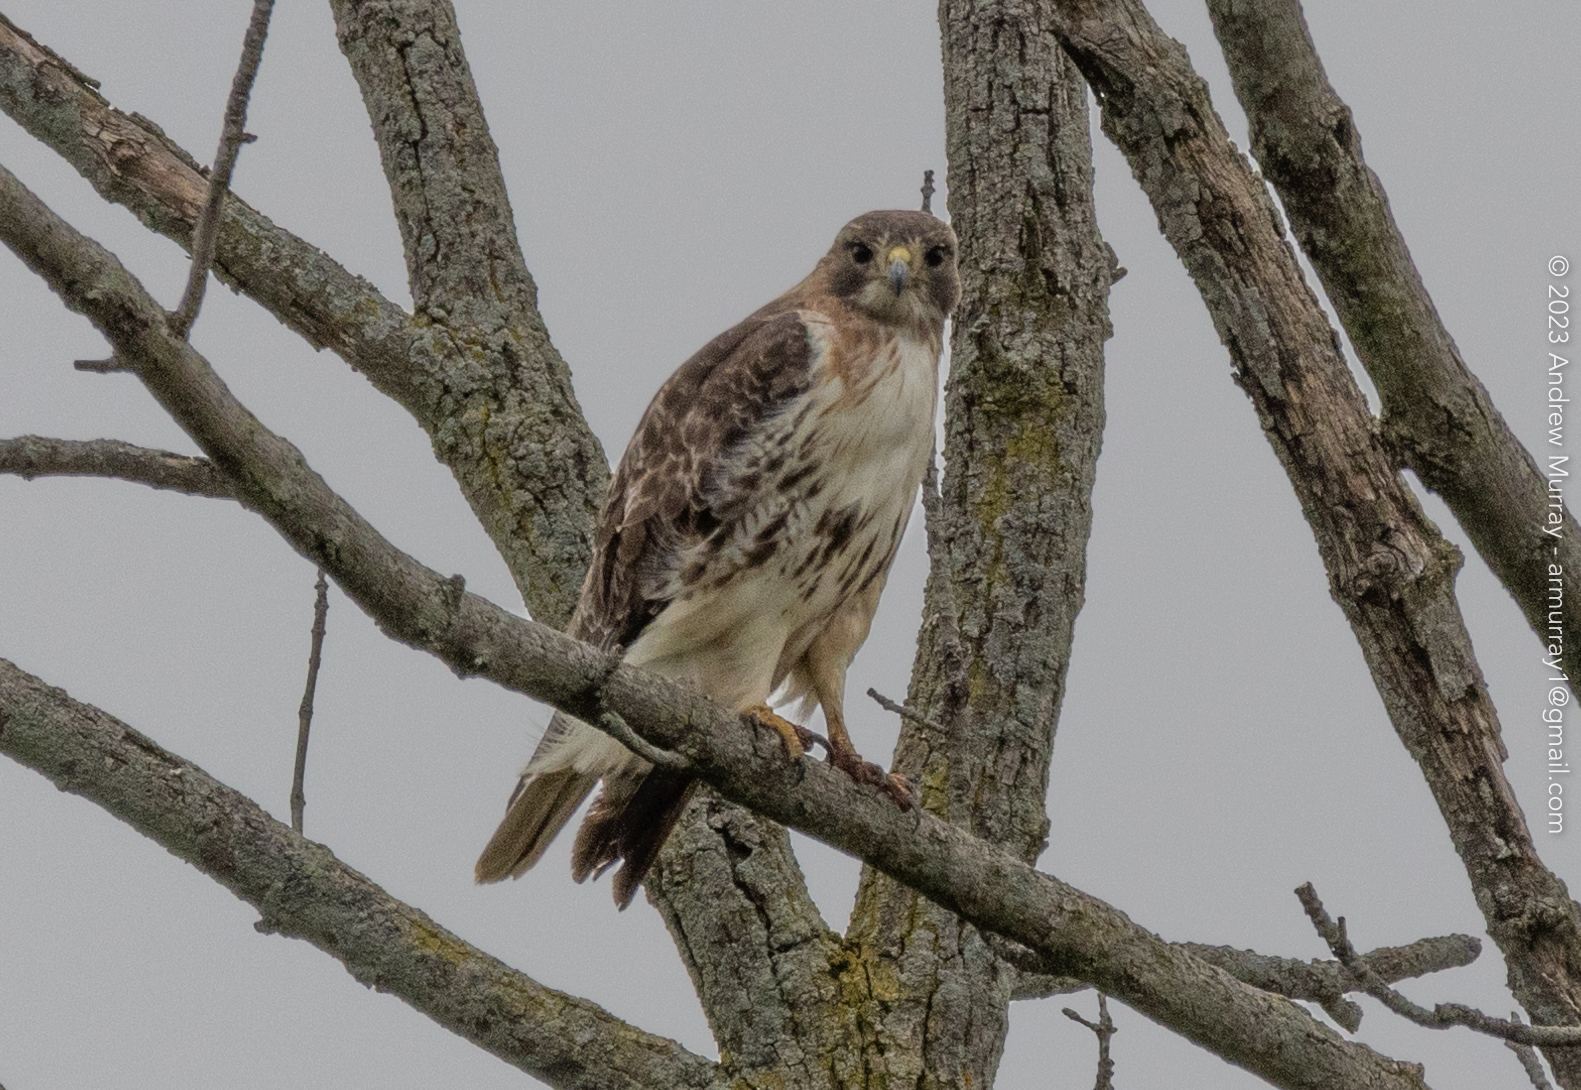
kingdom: Animalia
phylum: Chordata
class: Aves
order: Accipitriformes
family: Accipitridae
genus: Buteo
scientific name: Buteo jamaicensis
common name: Red-tailed hawk
